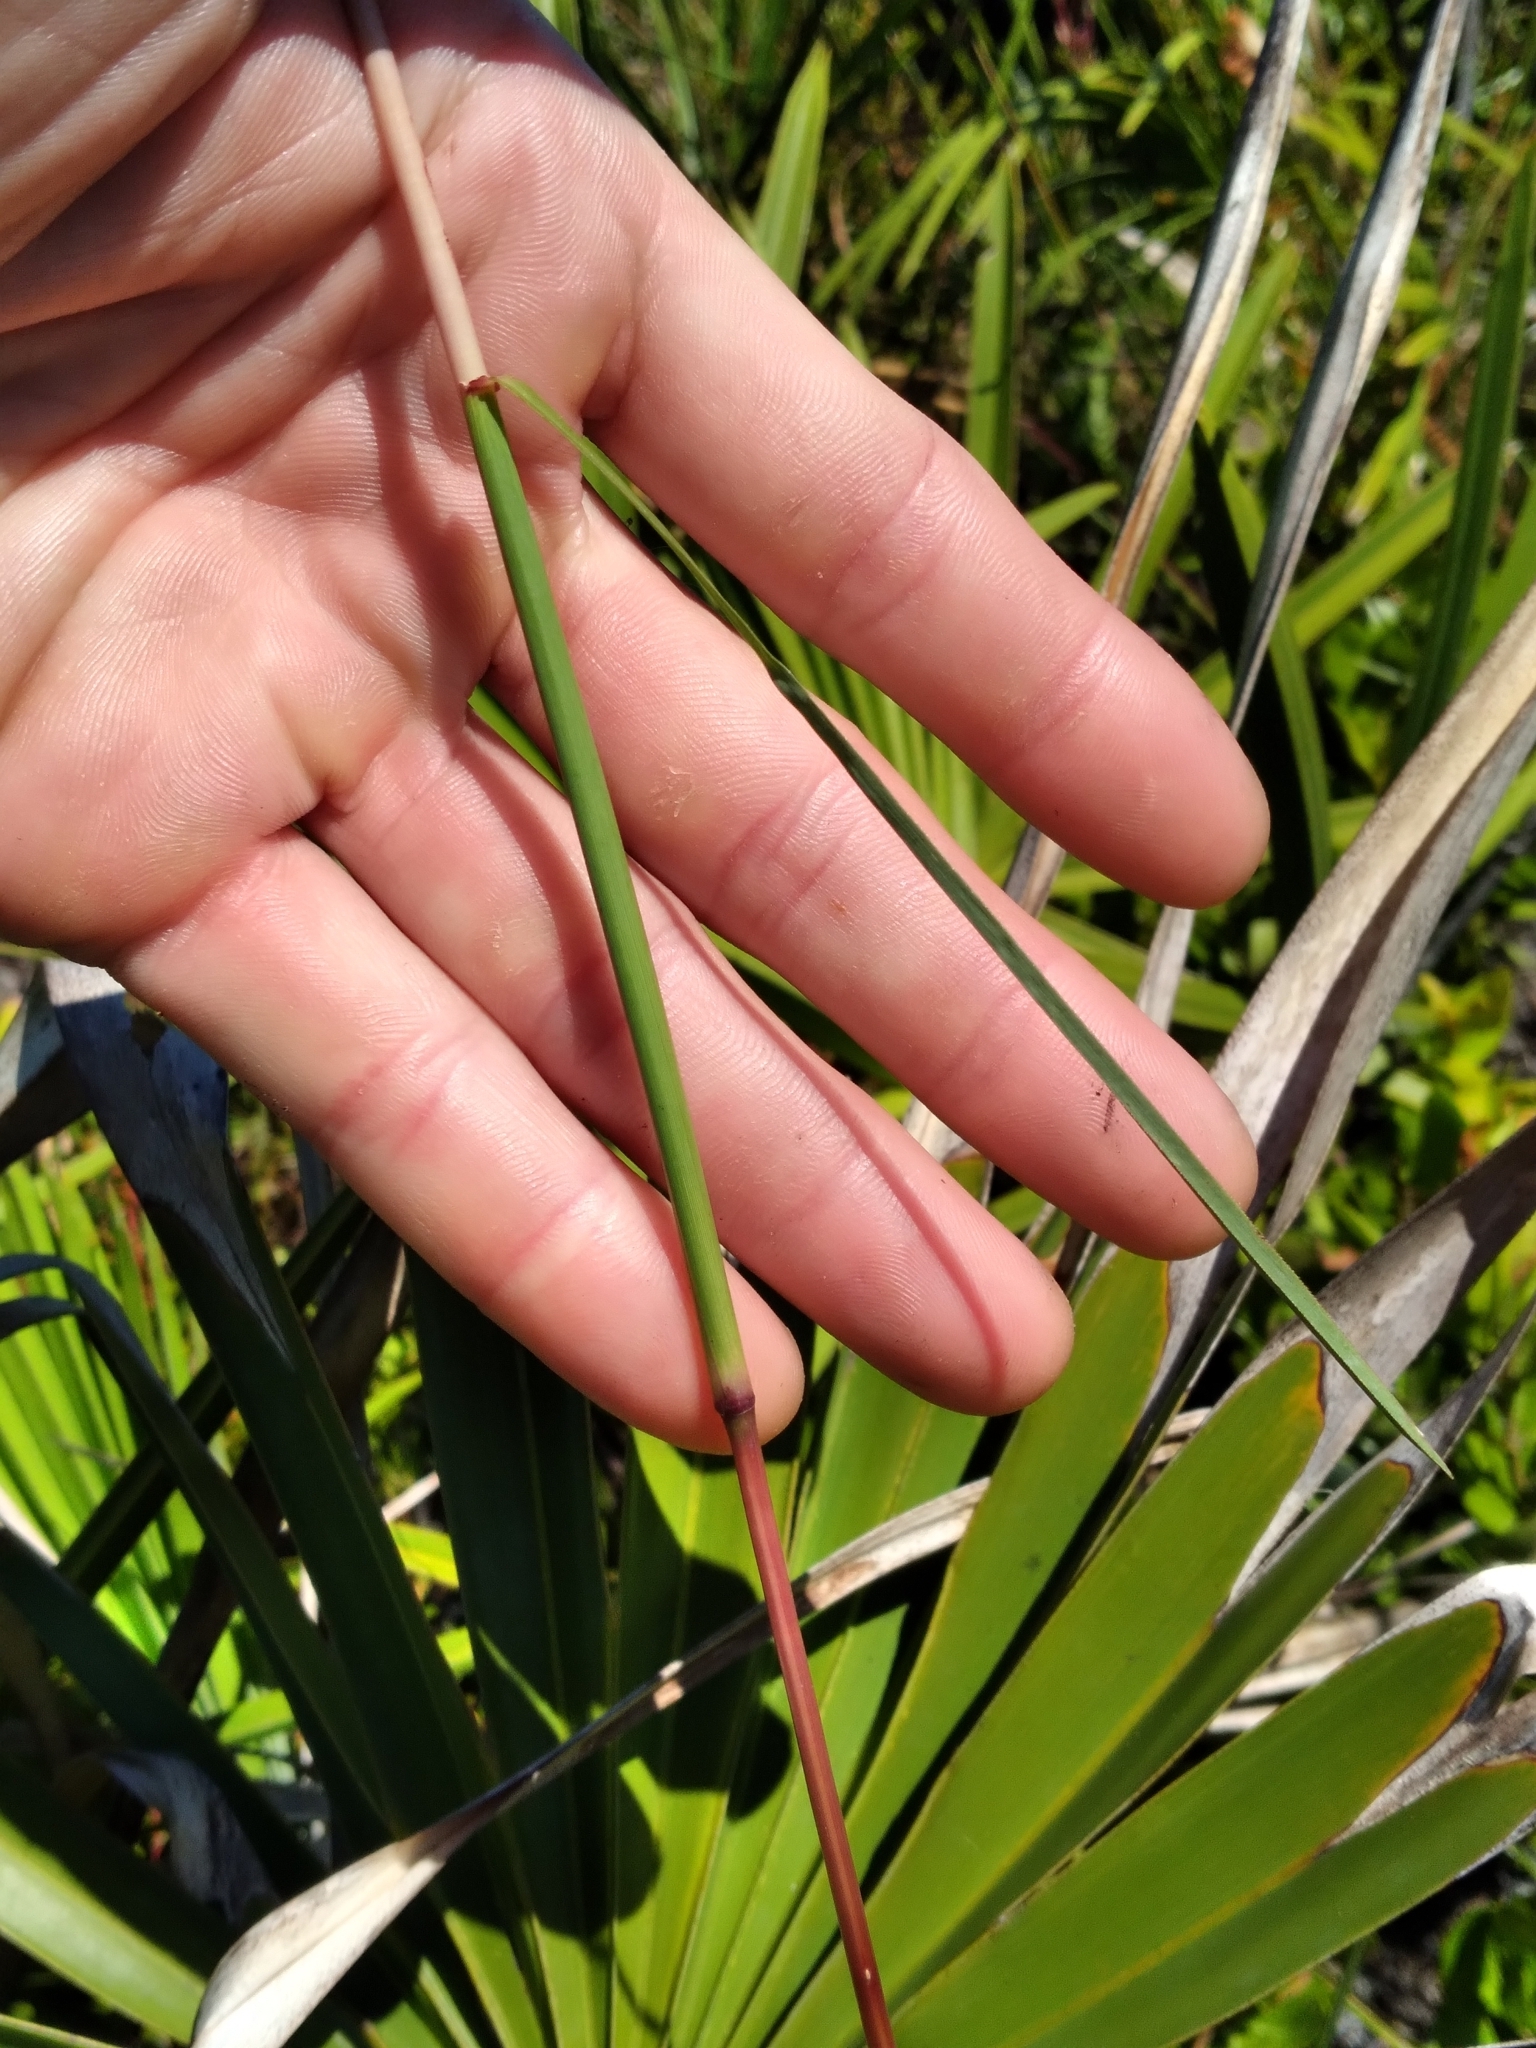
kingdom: Plantae
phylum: Tracheophyta
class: Liliopsida
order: Poales
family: Poaceae
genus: Andropogon
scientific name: Andropogon cabanisii
